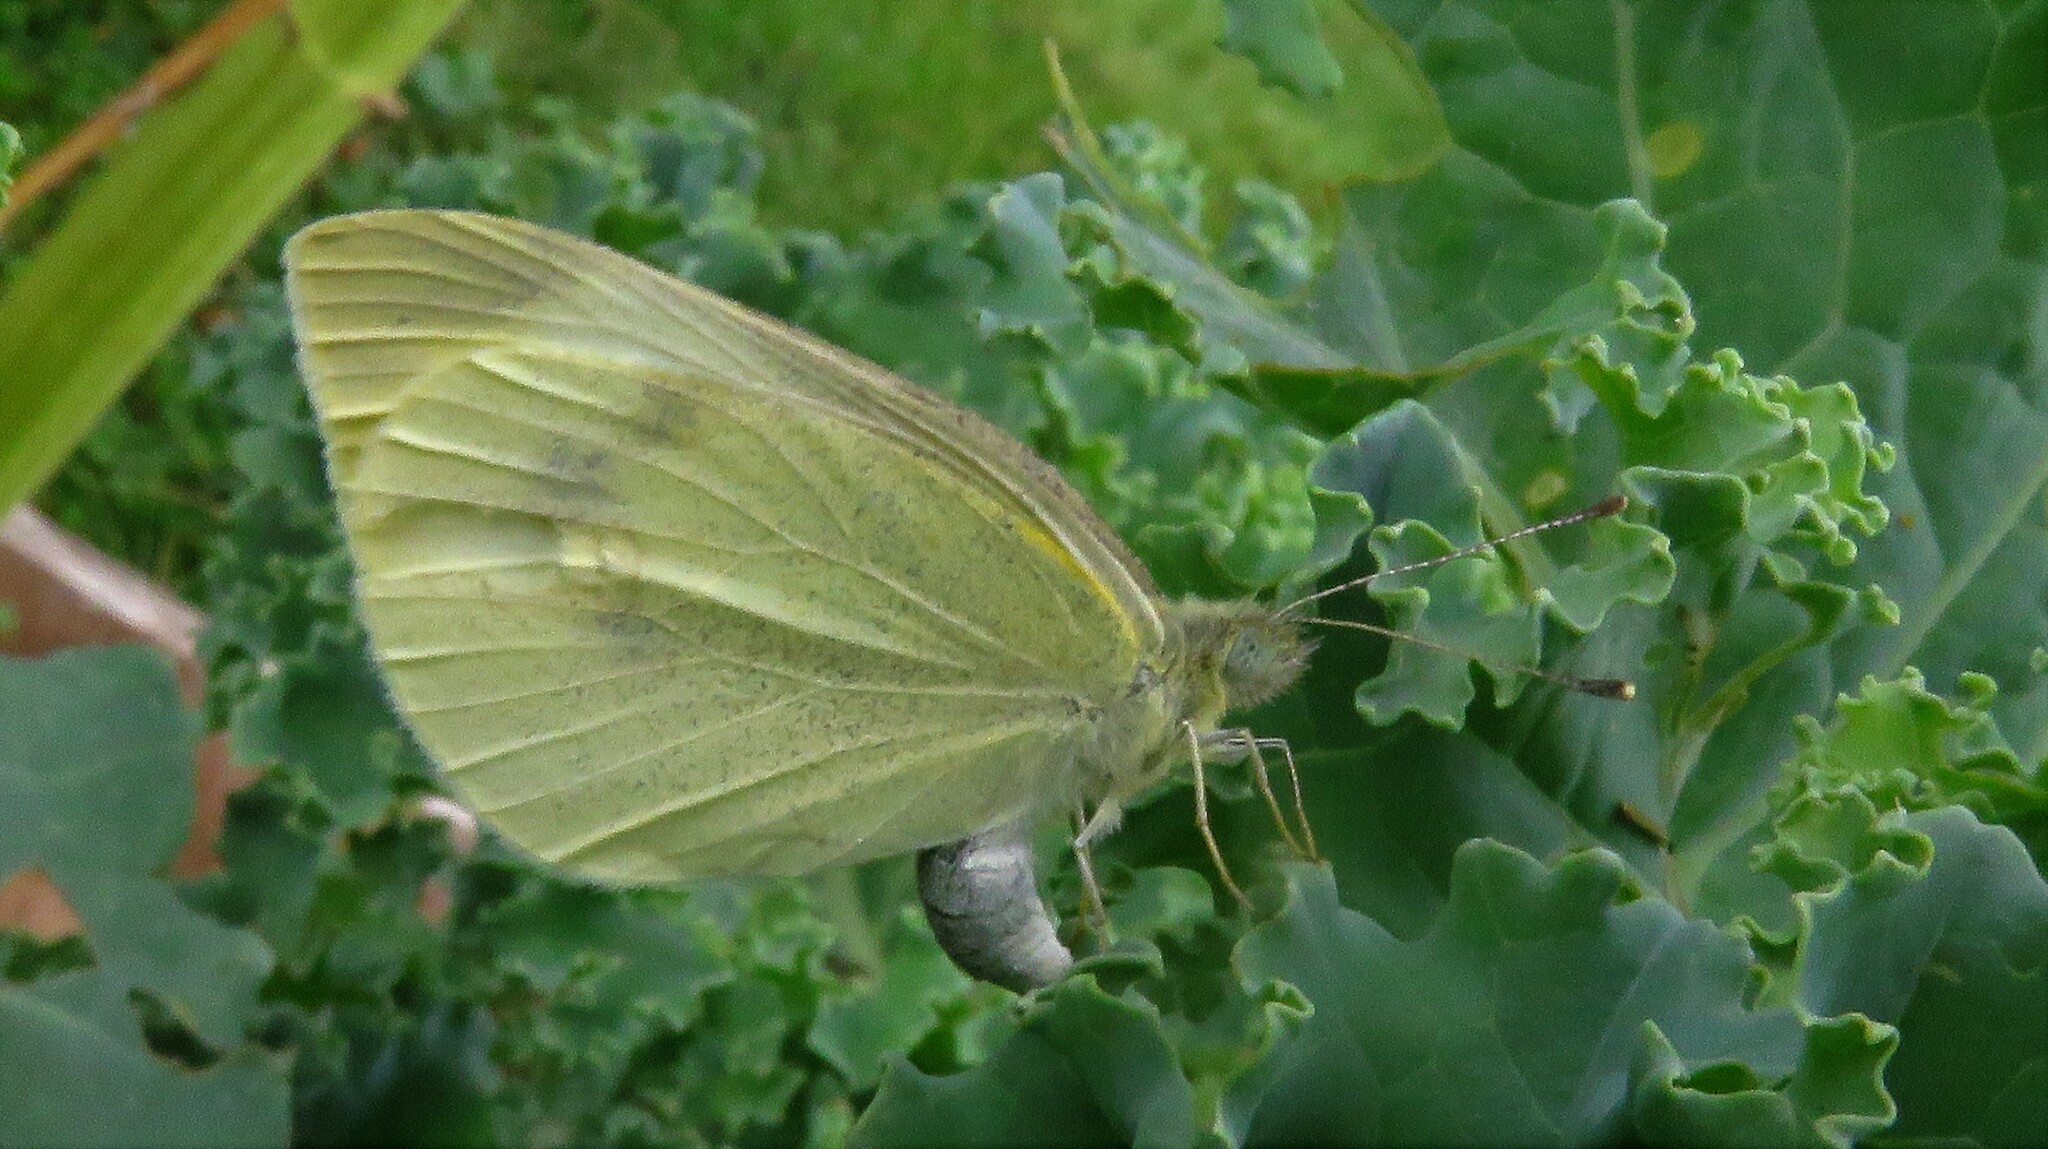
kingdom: Animalia
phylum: Arthropoda
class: Insecta
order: Lepidoptera
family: Pieridae
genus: Pieris
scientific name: Pieris rapae
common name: Small white
